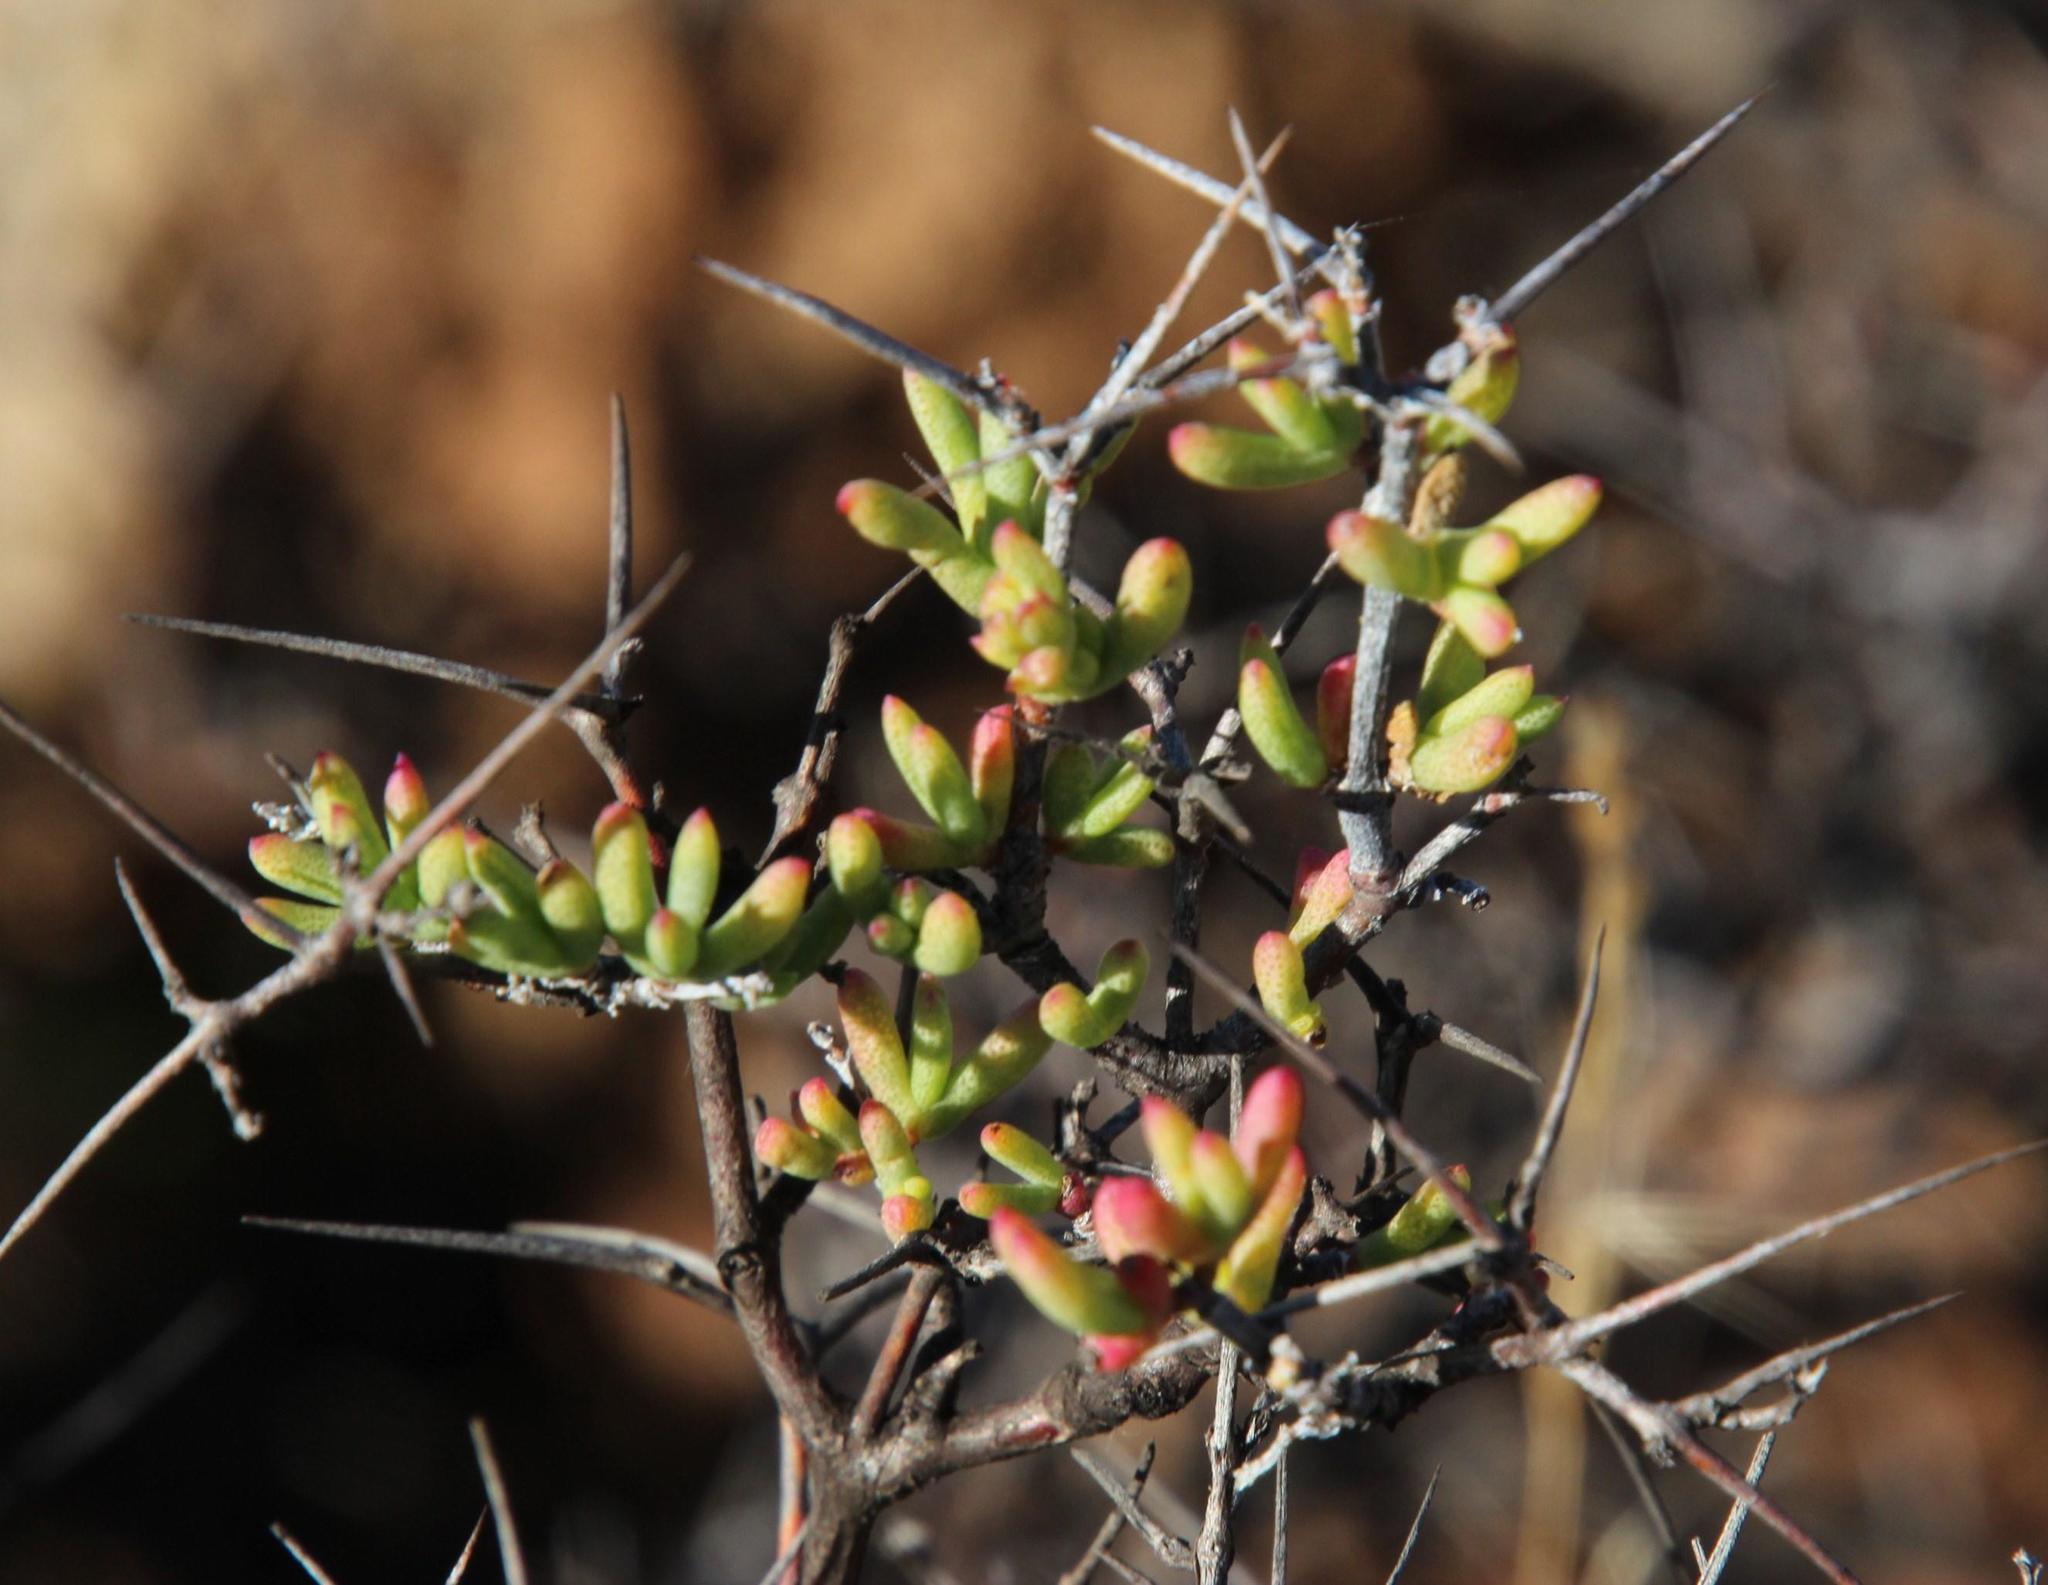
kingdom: Plantae
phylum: Tracheophyta
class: Magnoliopsida
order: Caryophyllales
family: Aizoaceae
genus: Ruschia
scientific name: Ruschia intricata
